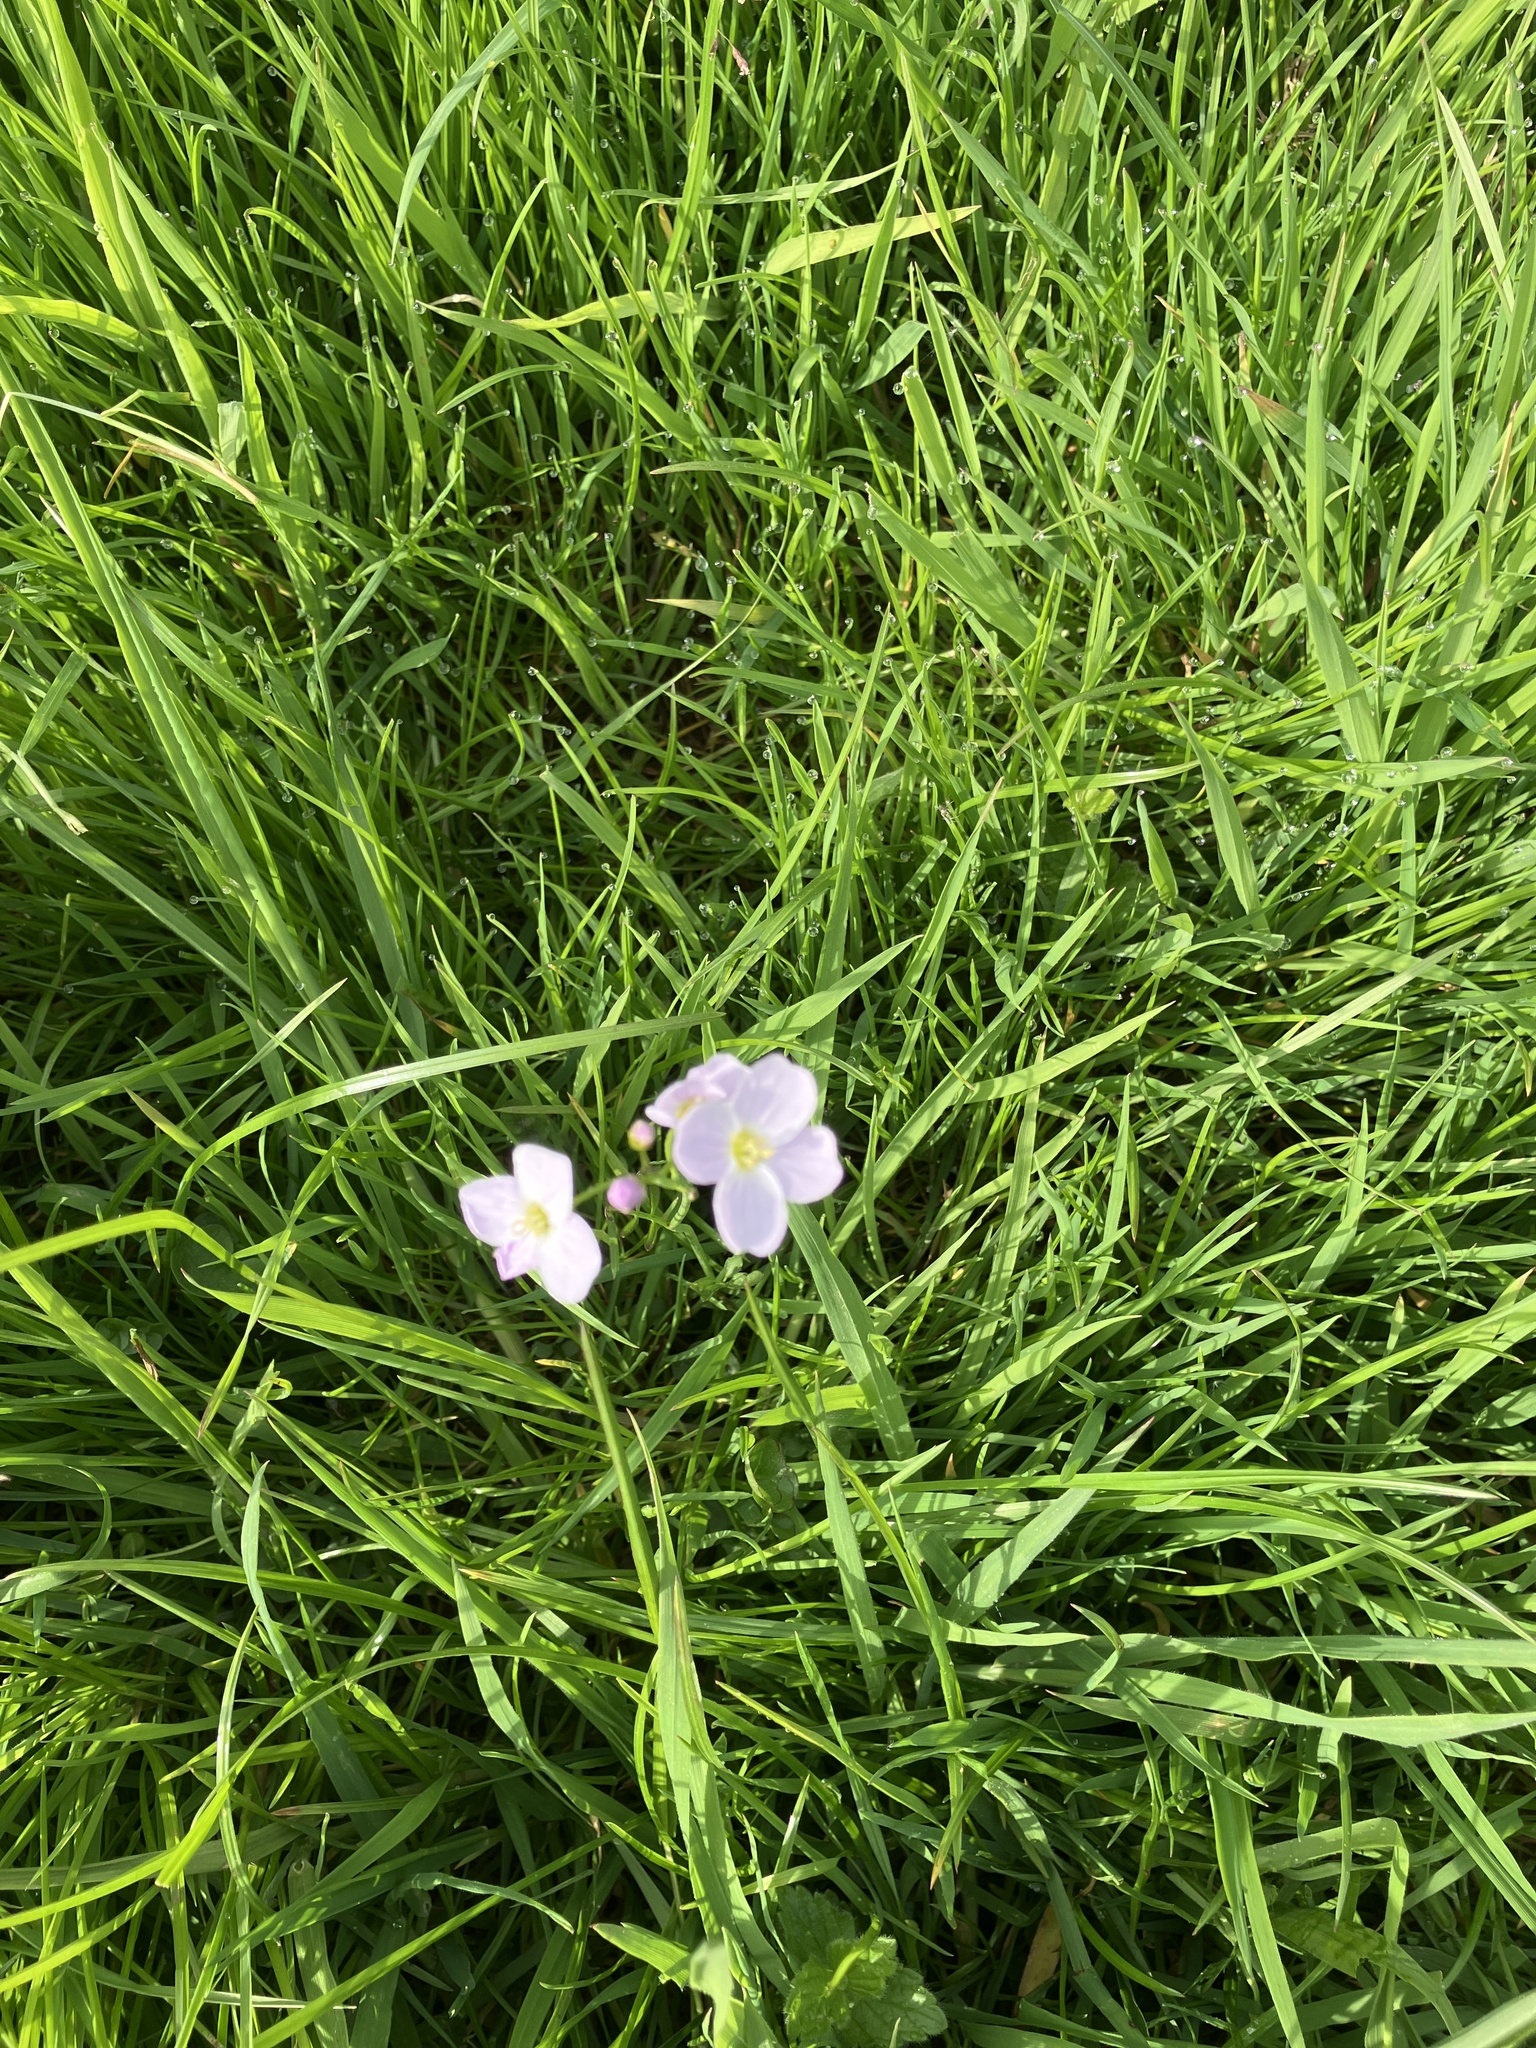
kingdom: Plantae
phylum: Tracheophyta
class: Magnoliopsida
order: Brassicales
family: Brassicaceae
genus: Cardamine
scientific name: Cardamine pratensis
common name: Cuckoo flower
